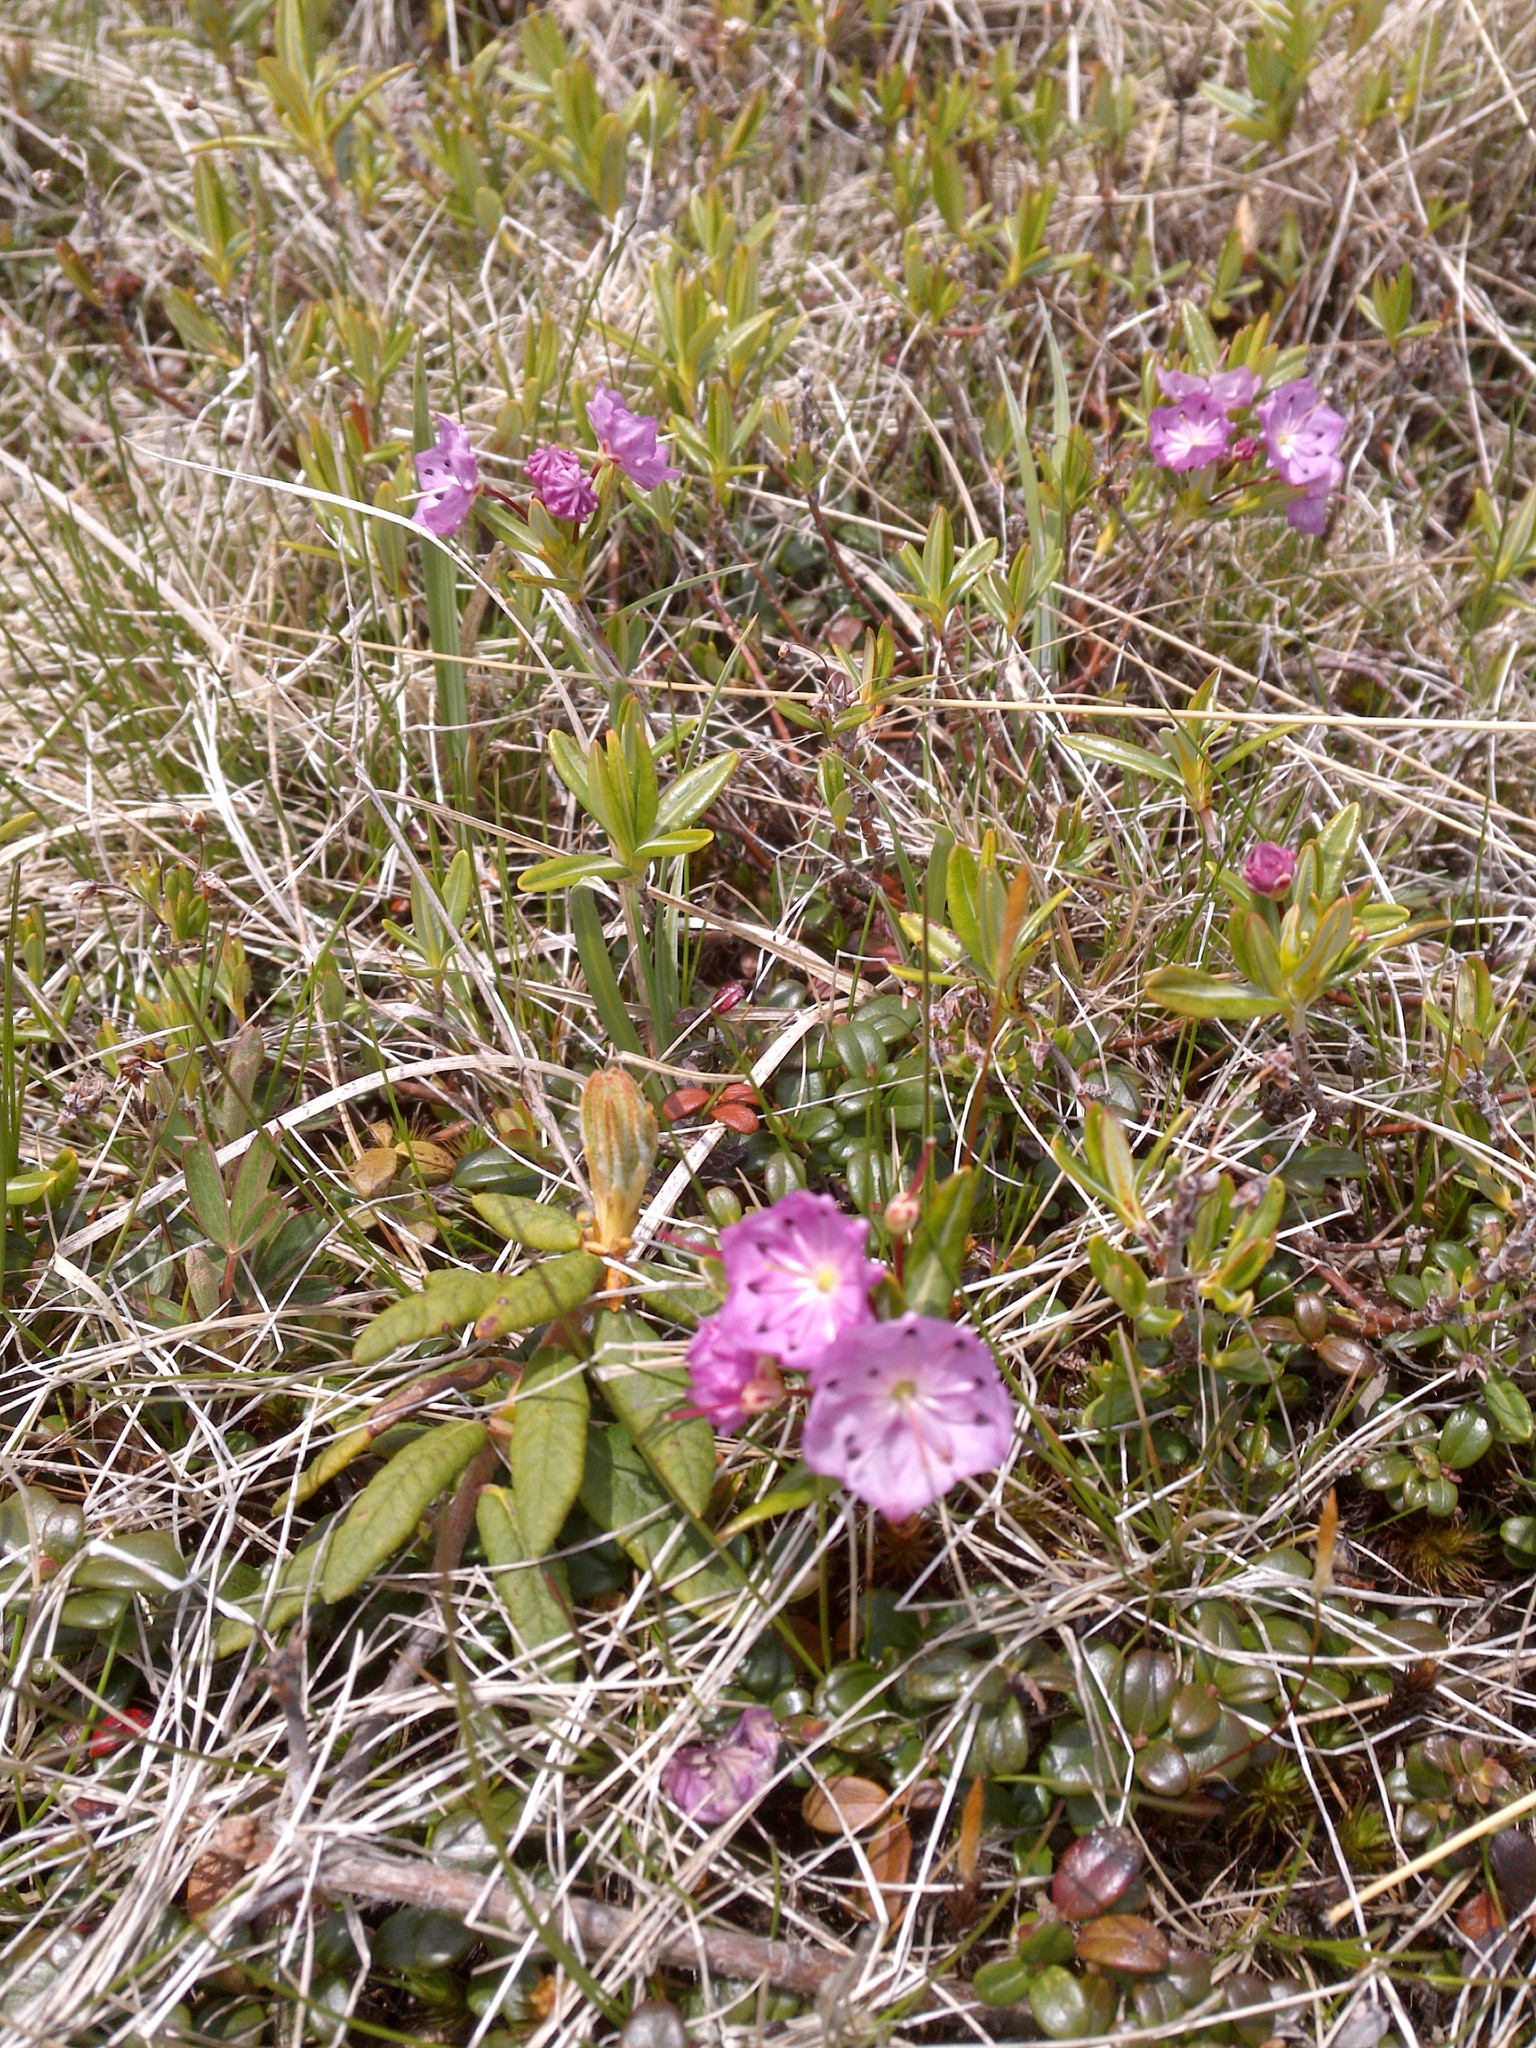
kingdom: Plantae
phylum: Tracheophyta
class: Magnoliopsida
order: Ericales
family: Ericaceae
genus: Kalmia
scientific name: Kalmia polifolia
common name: Bog-laurel
